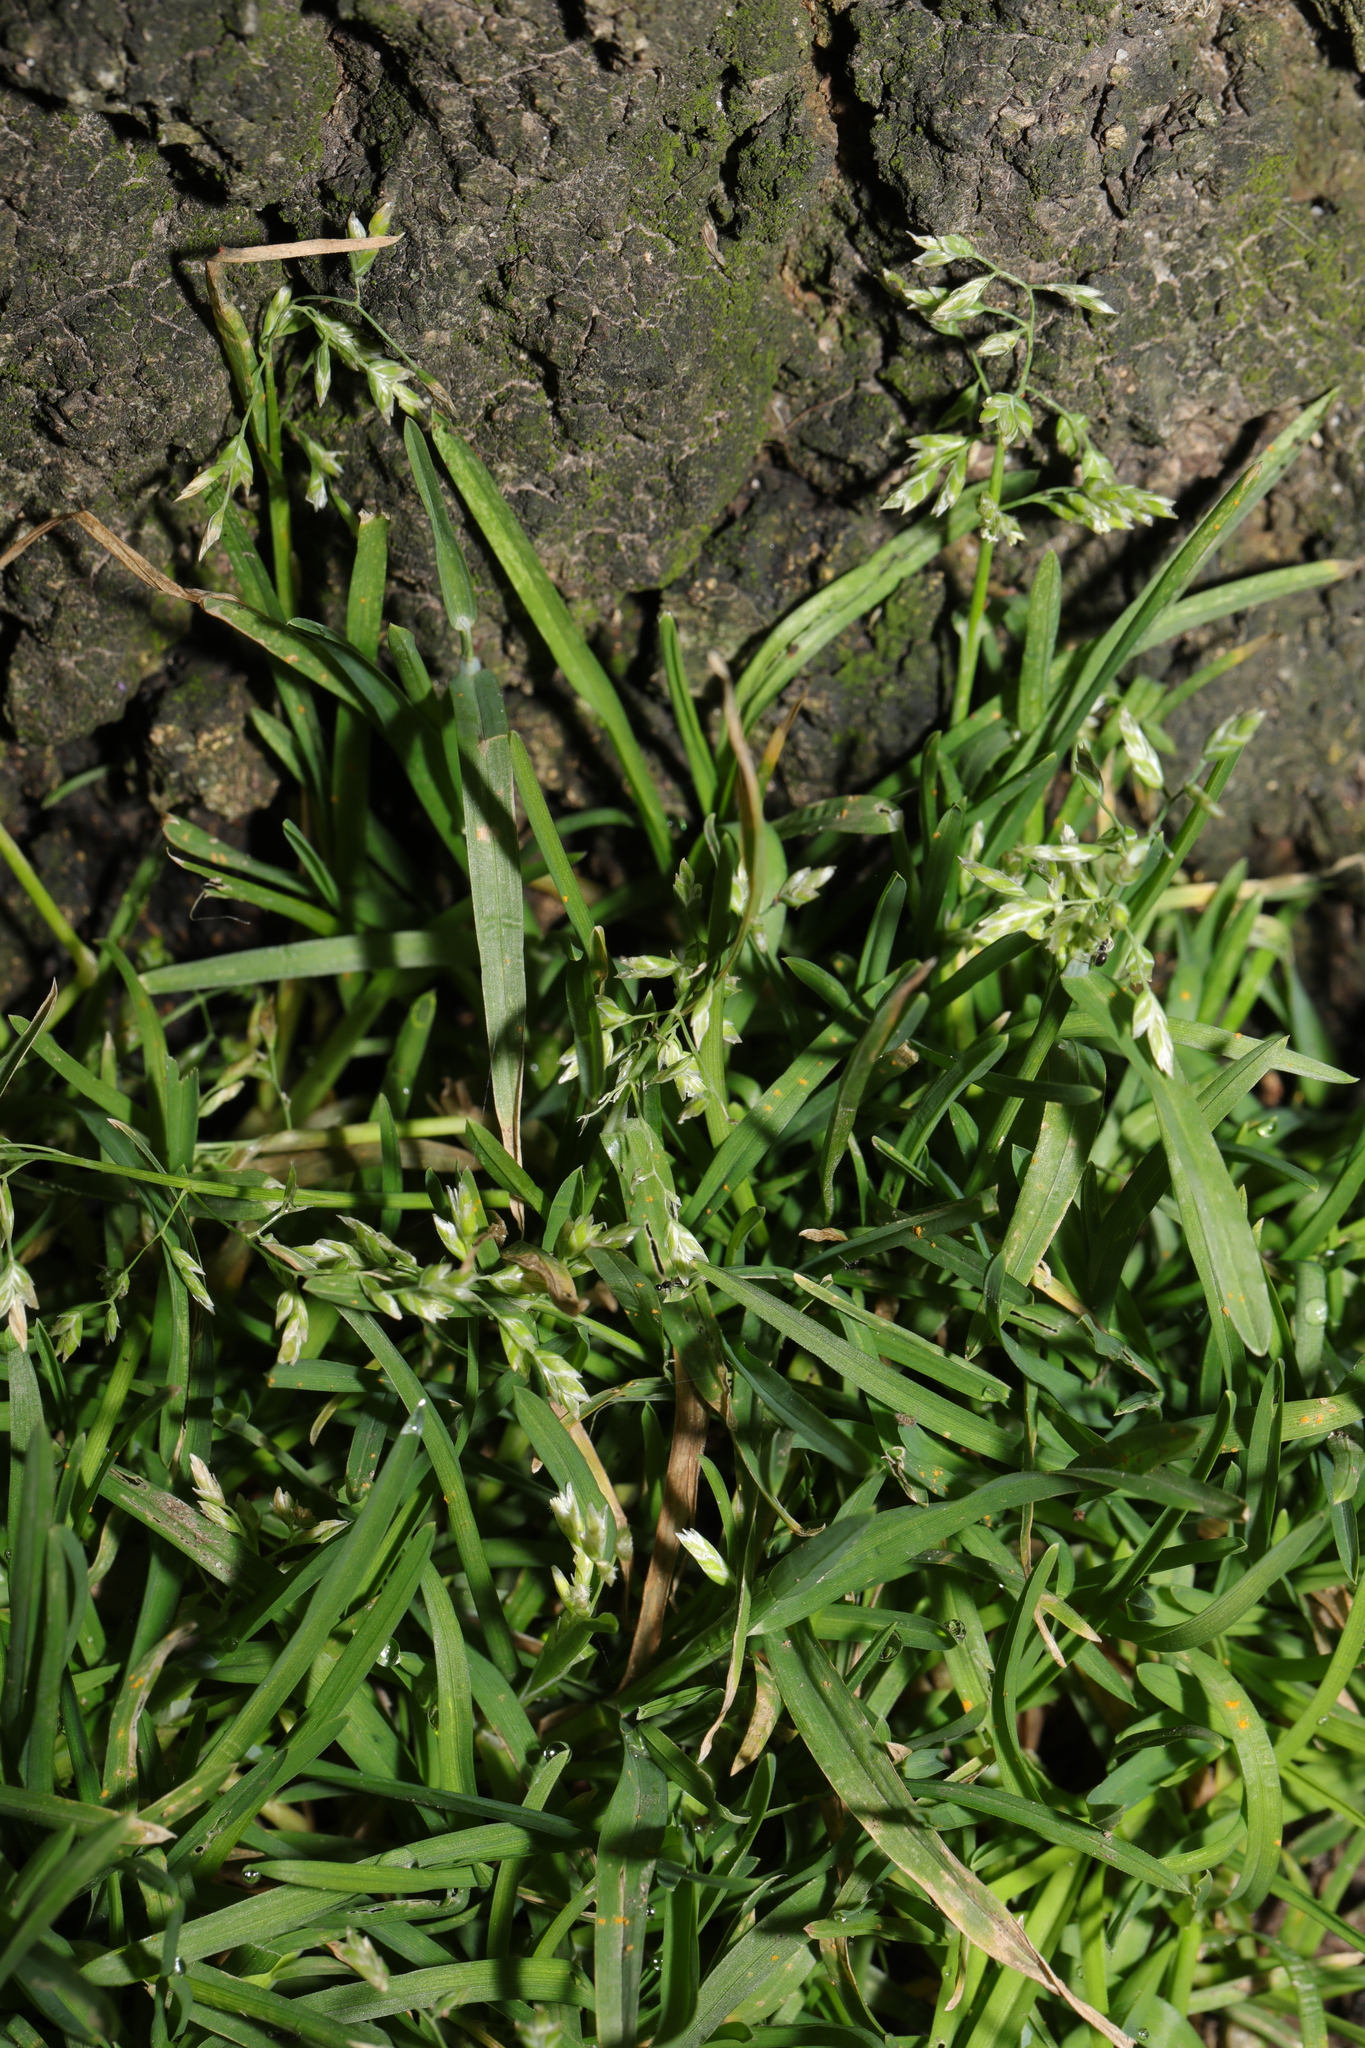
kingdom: Plantae
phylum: Tracheophyta
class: Liliopsida
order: Poales
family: Poaceae
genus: Poa
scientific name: Poa annua
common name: Annual bluegrass
